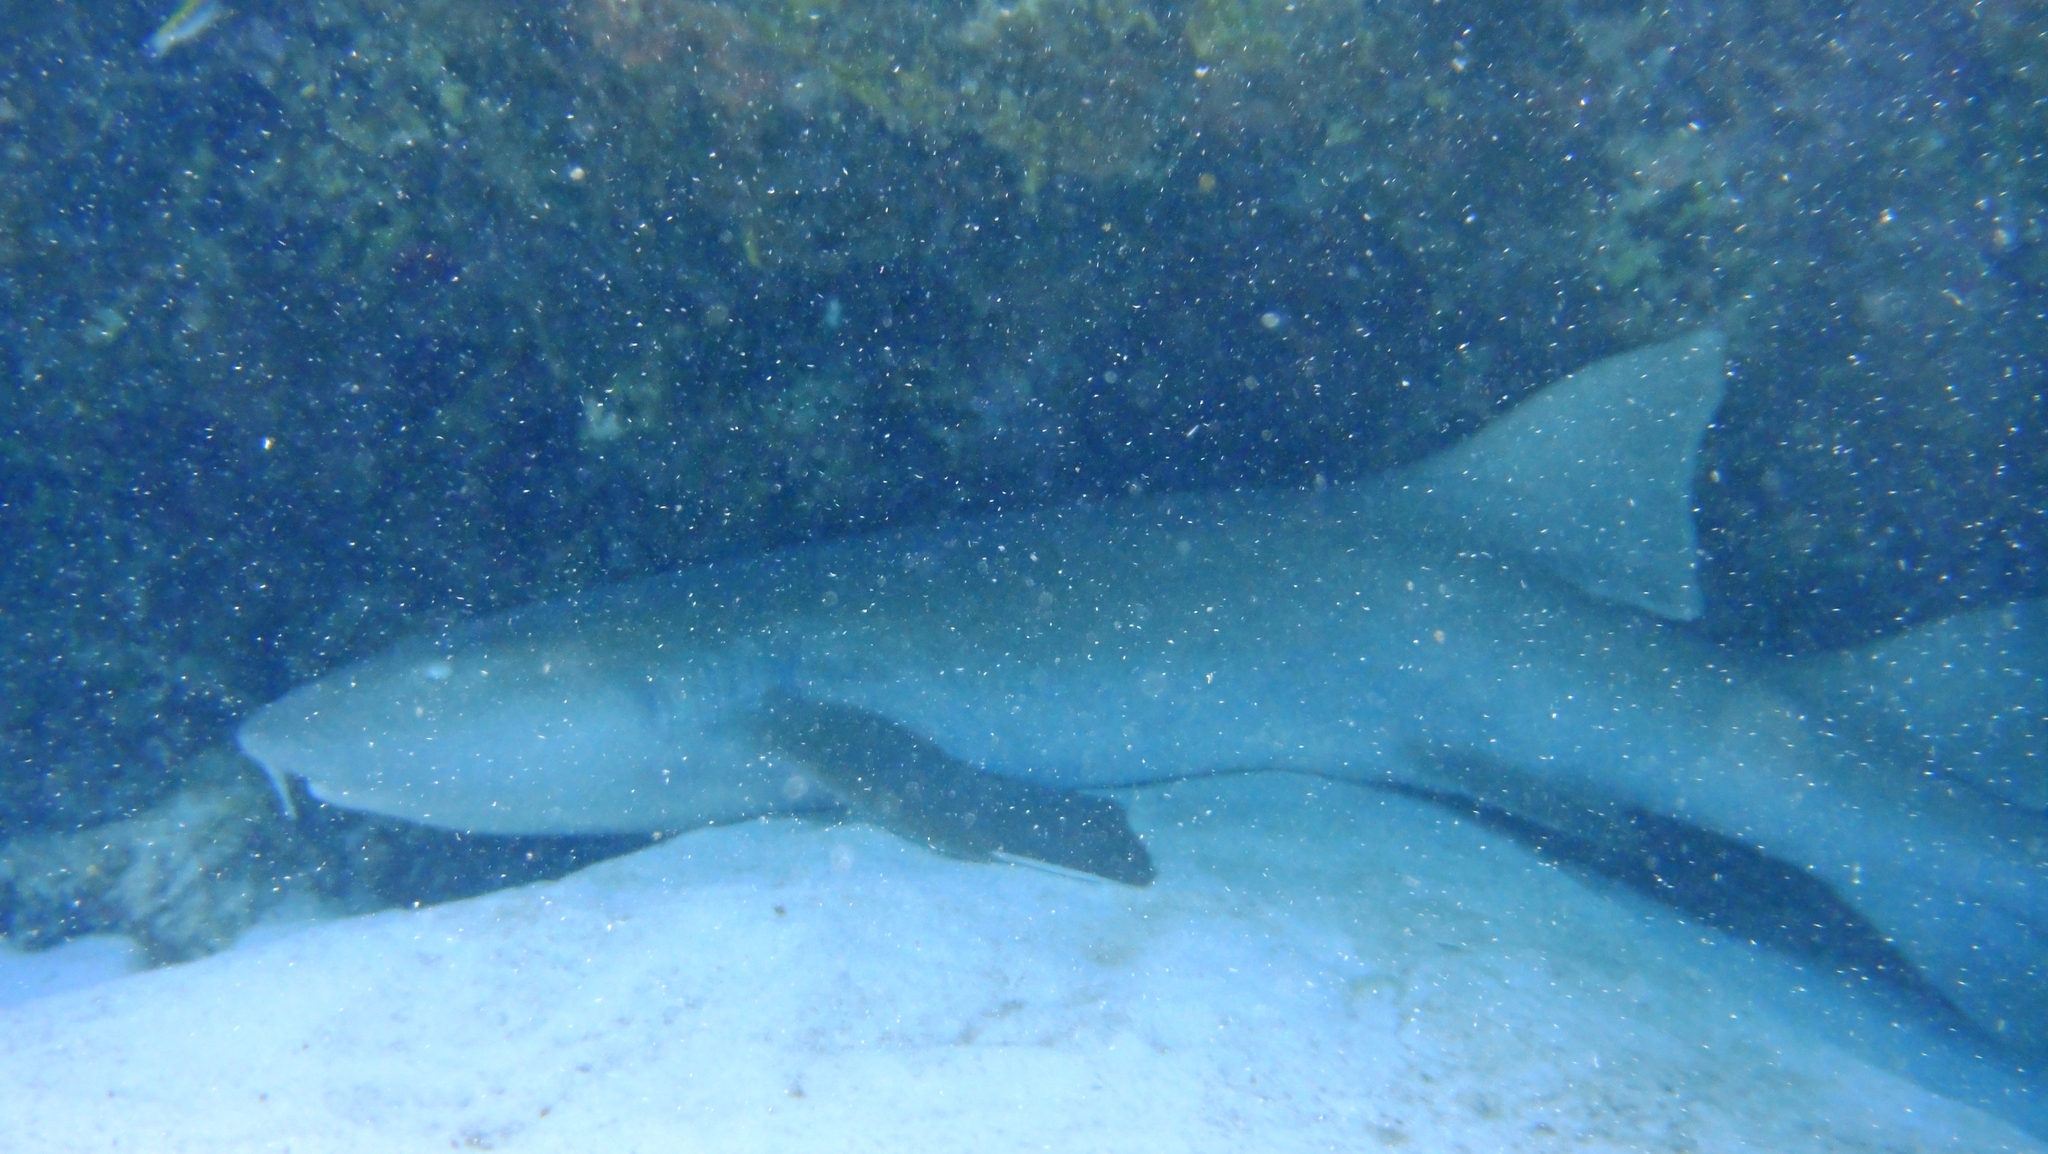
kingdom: Animalia
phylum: Chordata
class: Elasmobranchii
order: Orectolobiformes
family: Ginglymostomatidae
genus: Ginglymostoma
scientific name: Ginglymostoma cirratum
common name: Nurse shark
